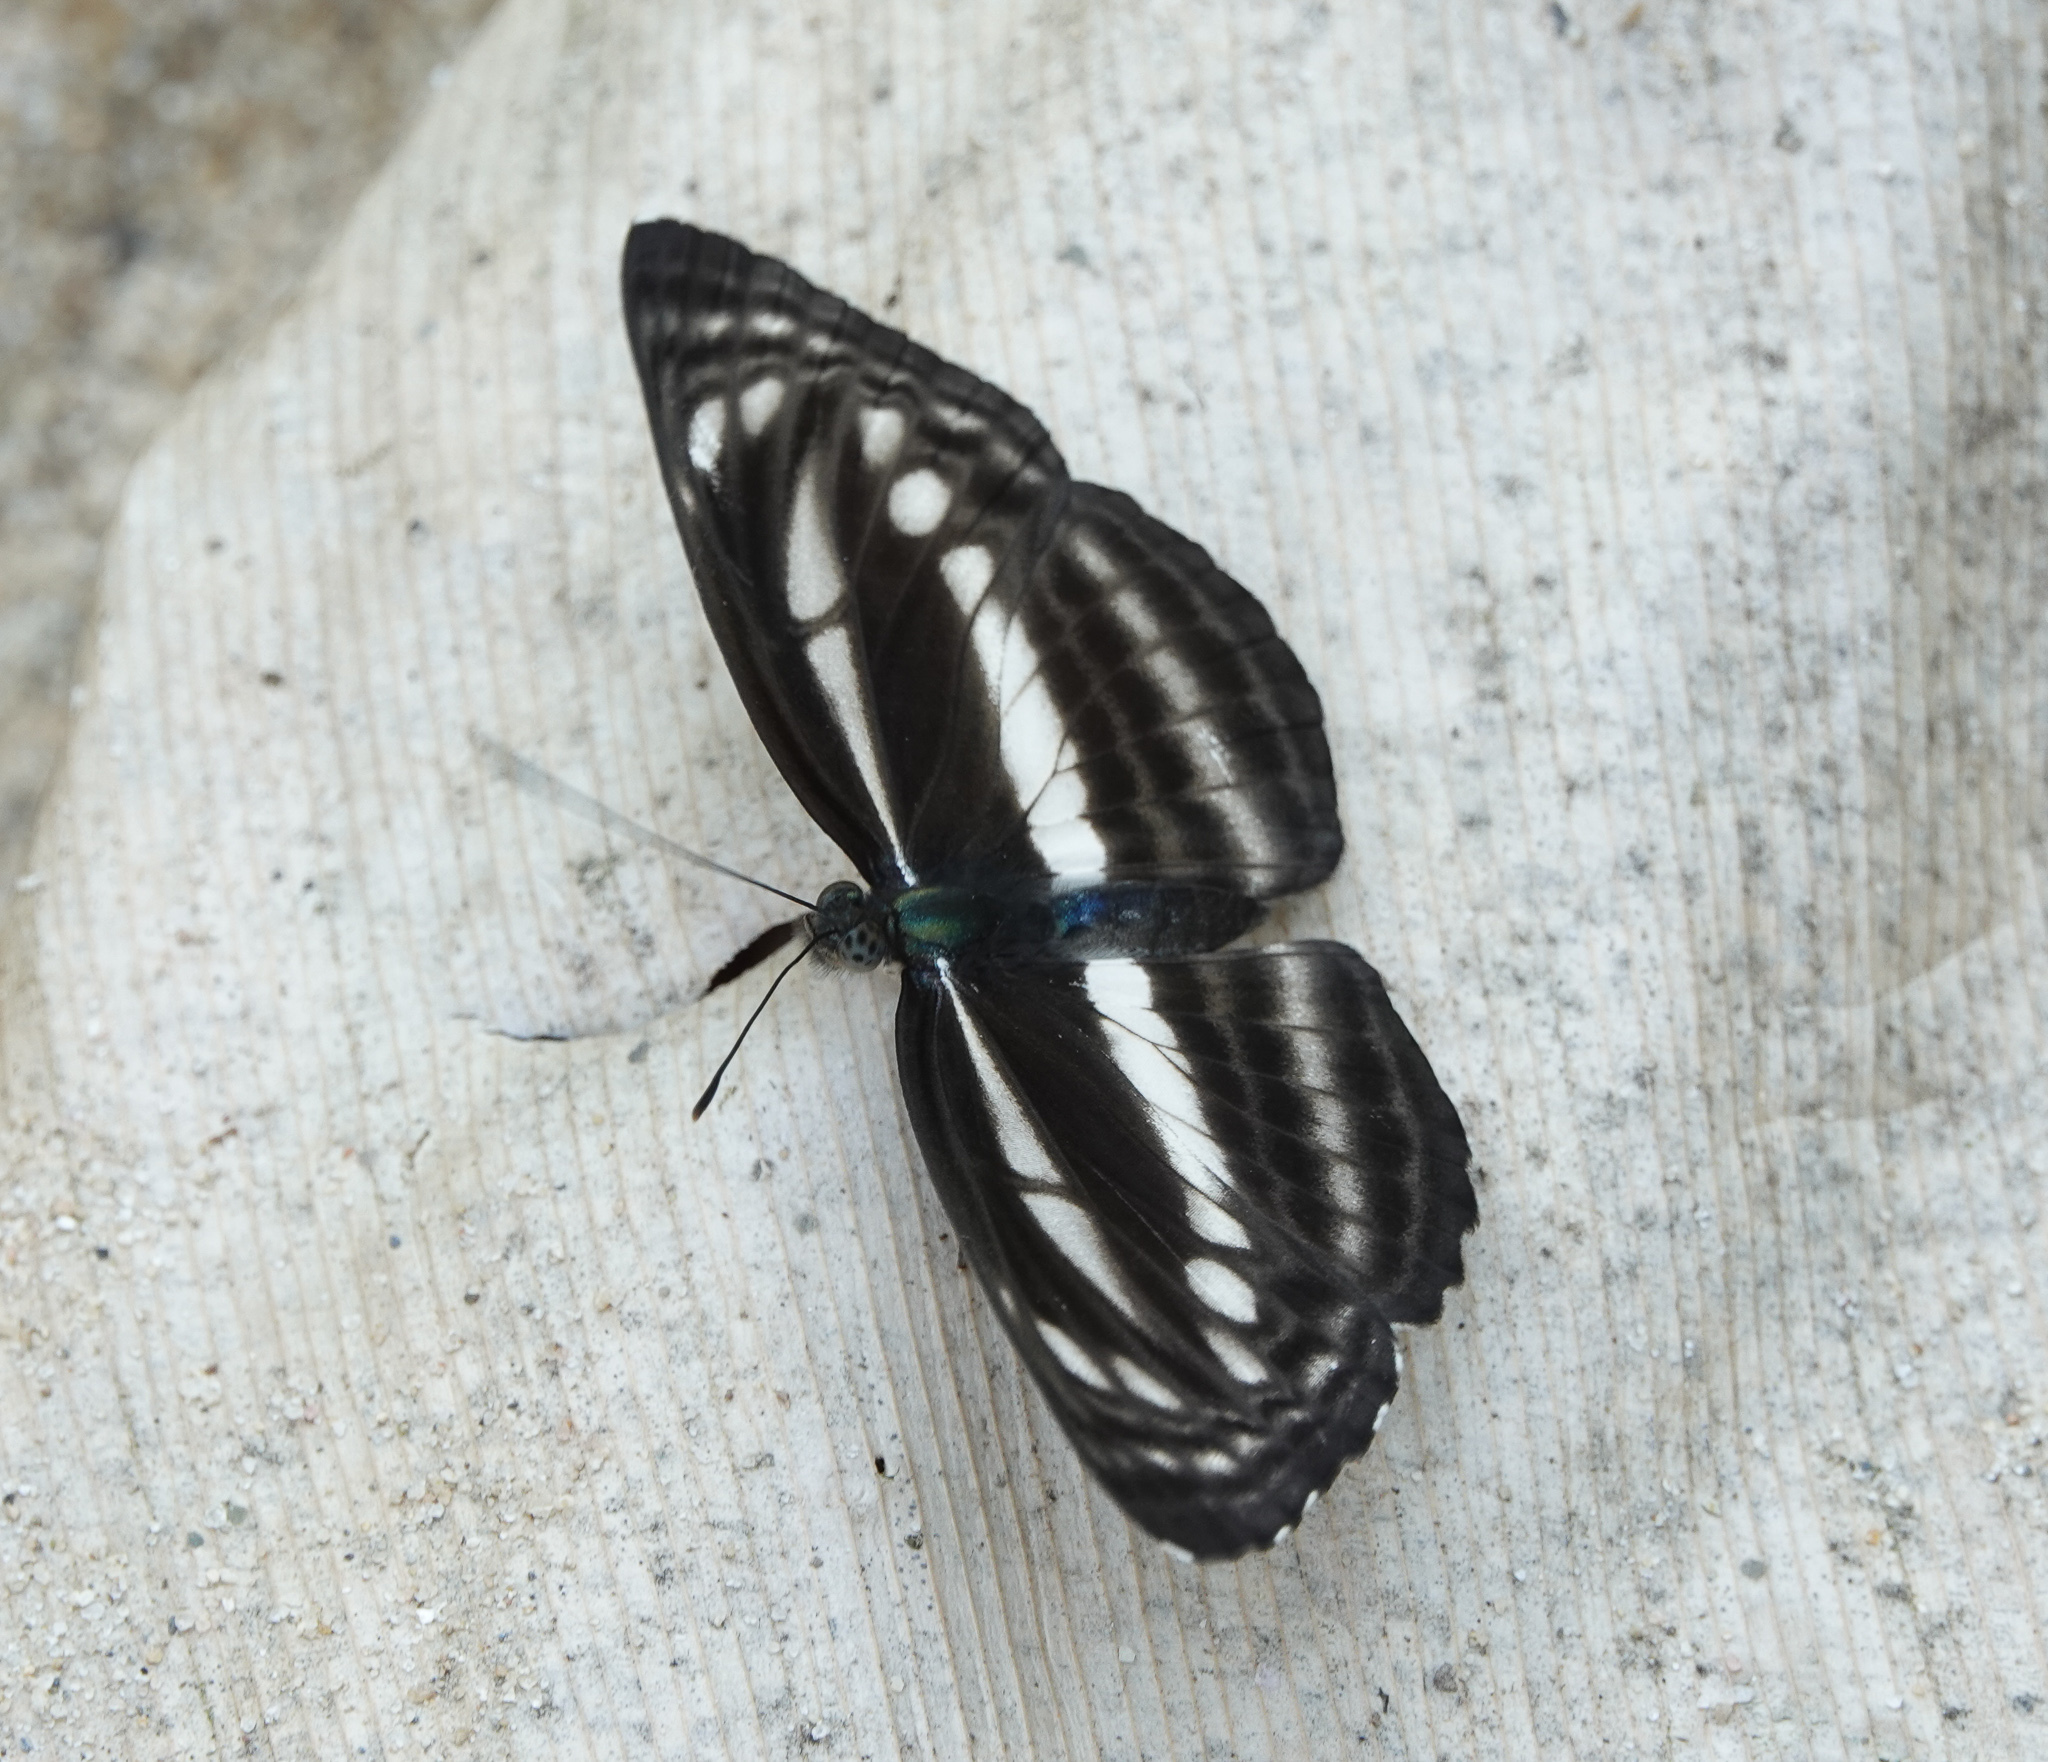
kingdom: Animalia
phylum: Arthropoda
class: Insecta
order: Lepidoptera
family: Nymphalidae
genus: Neptis
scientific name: Neptis clinia
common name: Southern sullied sailer
